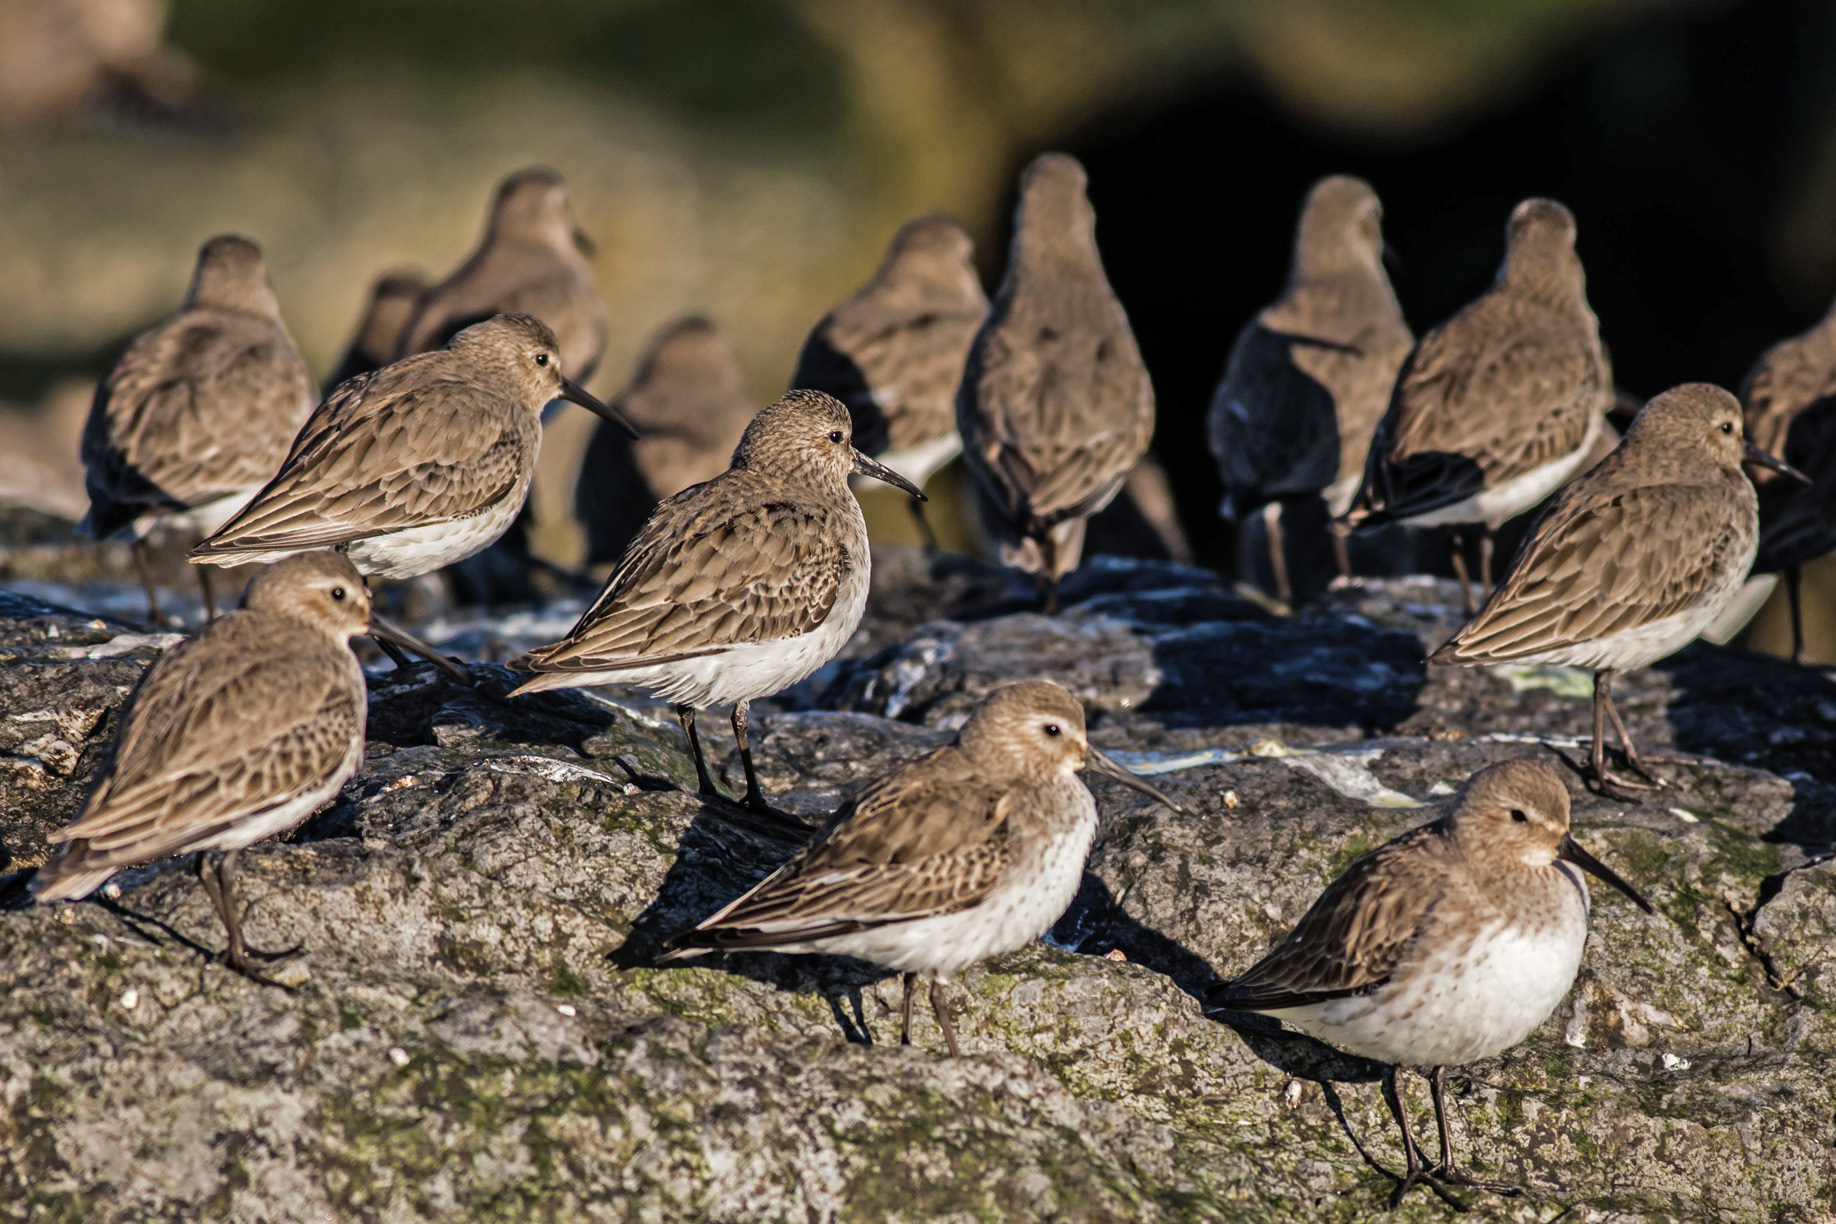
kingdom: Animalia
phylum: Chordata
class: Aves
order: Charadriiformes
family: Scolopacidae
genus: Calidris
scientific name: Calidris alpina
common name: Dunlin
